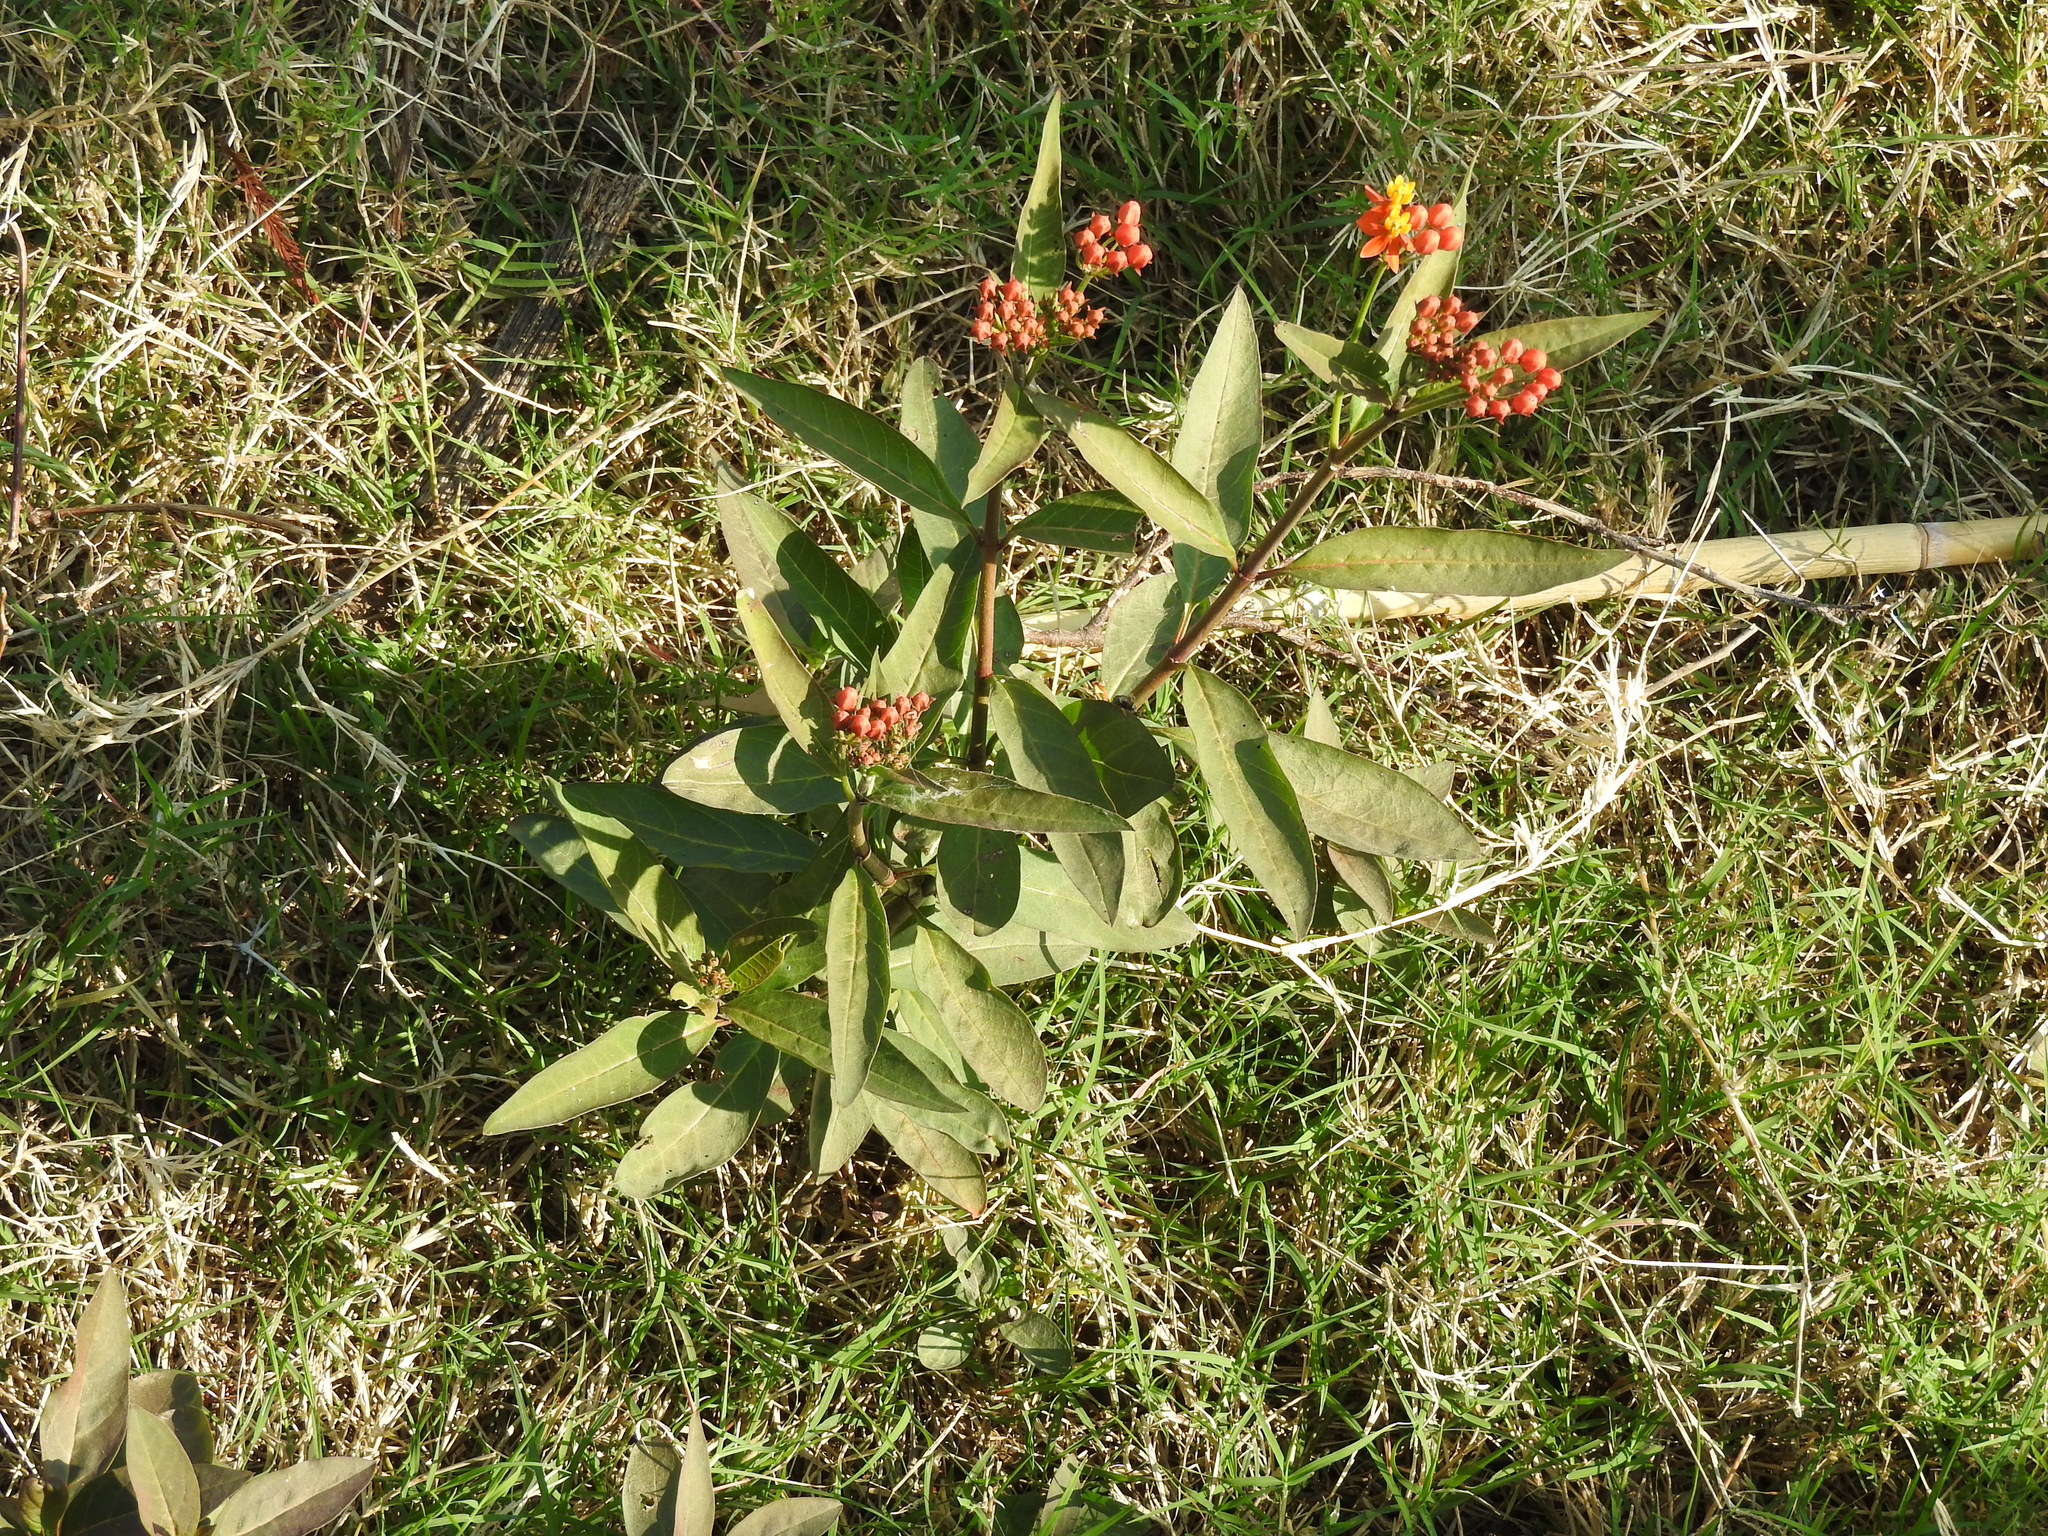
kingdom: Plantae
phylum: Tracheophyta
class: Magnoliopsida
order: Gentianales
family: Apocynaceae
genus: Asclepias
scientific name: Asclepias curassavica
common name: Bloodflower
